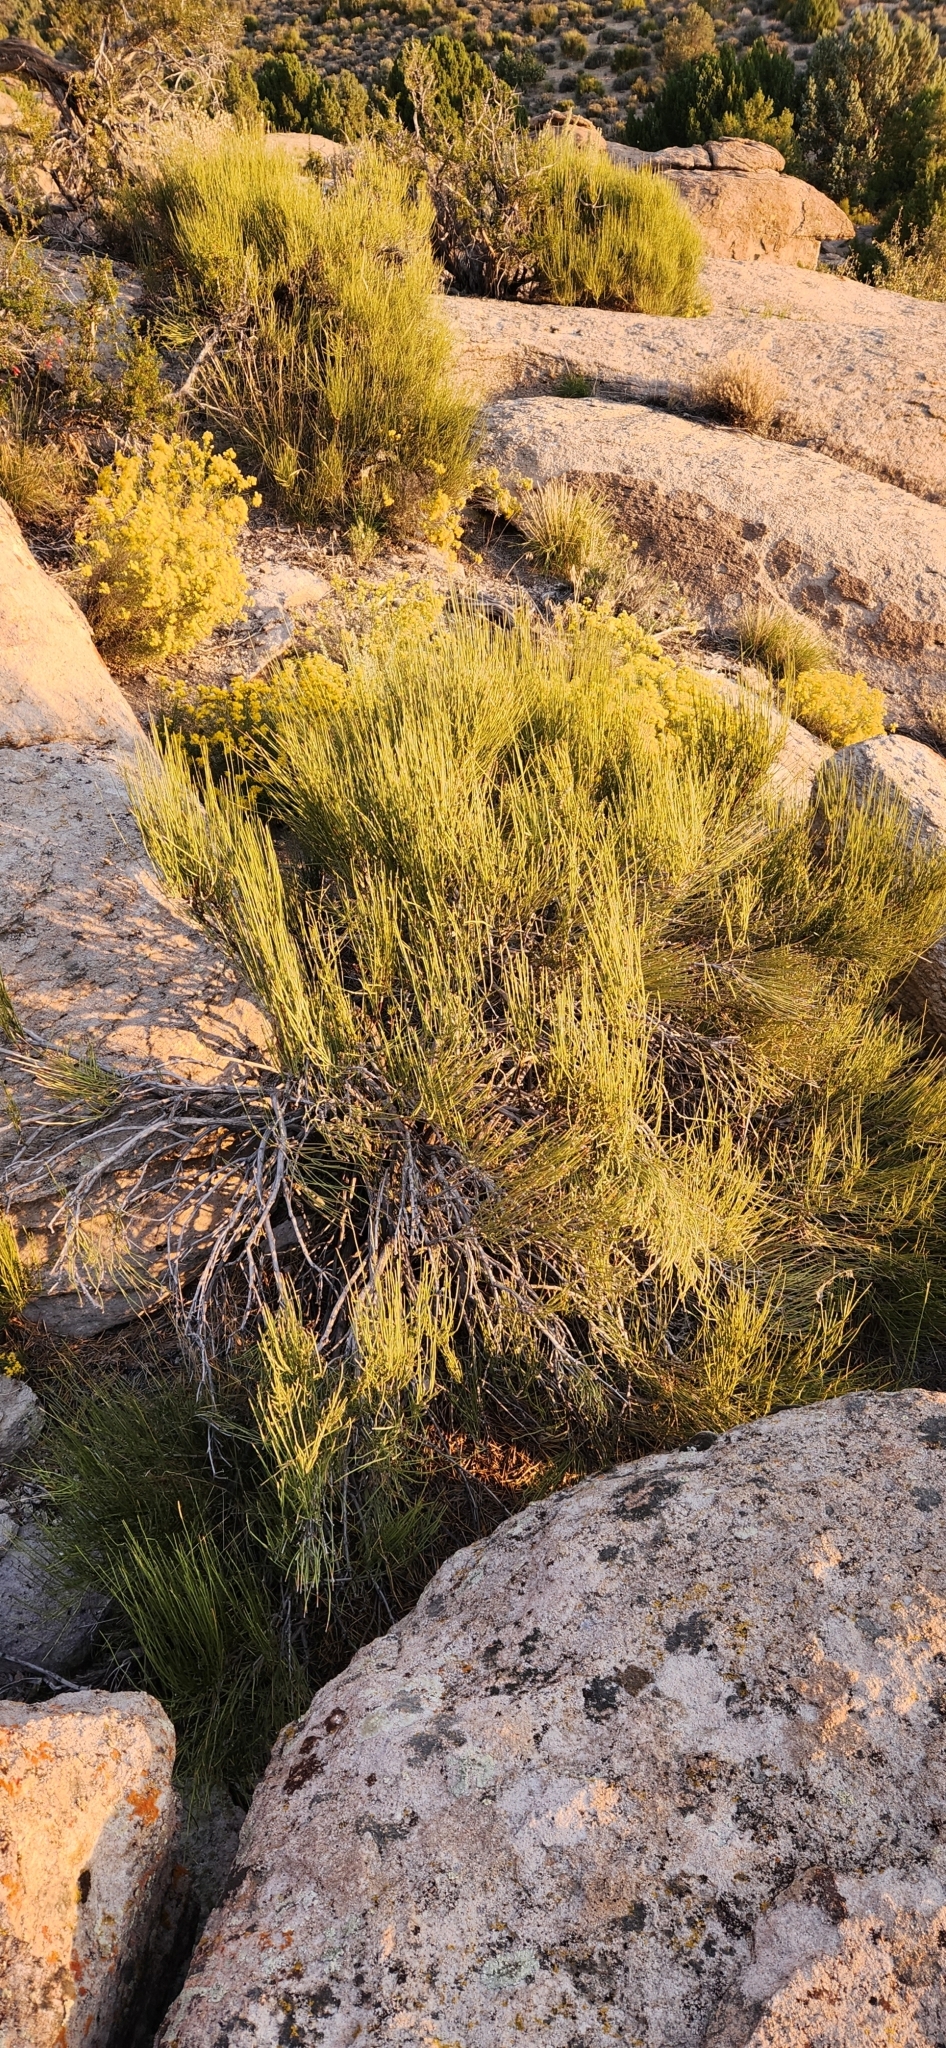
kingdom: Plantae
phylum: Tracheophyta
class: Gnetopsida
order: Ephedrales
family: Ephedraceae
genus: Ephedra
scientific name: Ephedra viridis
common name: Green ephedra
